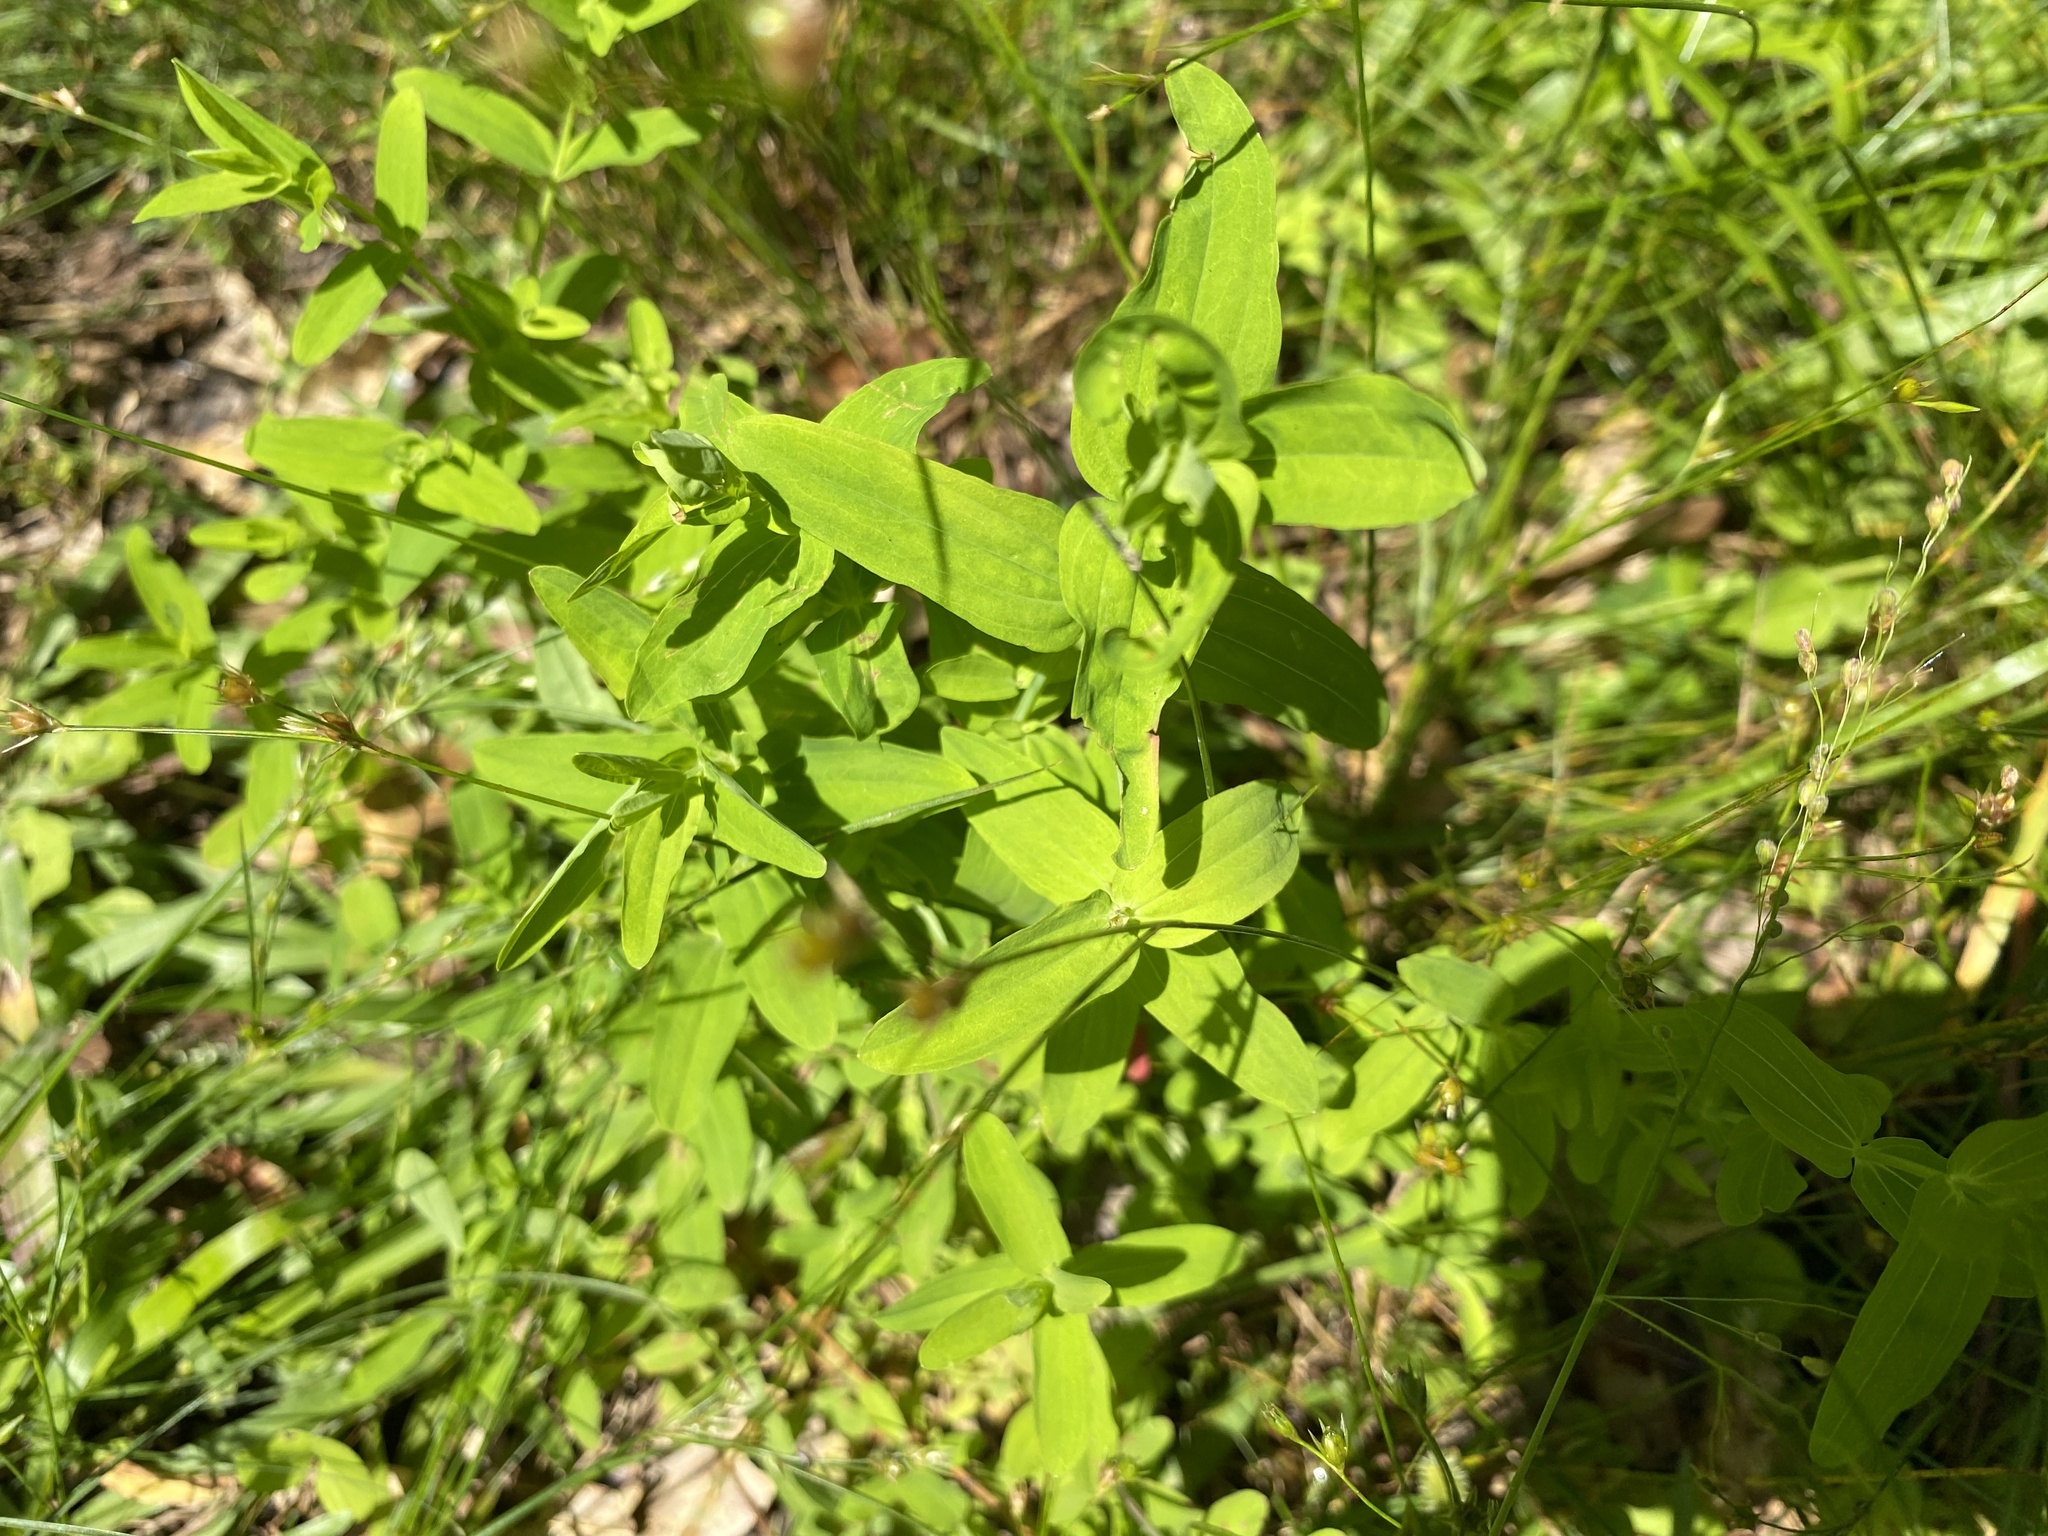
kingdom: Plantae
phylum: Tracheophyta
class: Magnoliopsida
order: Malpighiales
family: Hypericaceae
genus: Hypericum
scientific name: Hypericum mutilum
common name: Dwarf st. john's-wort
